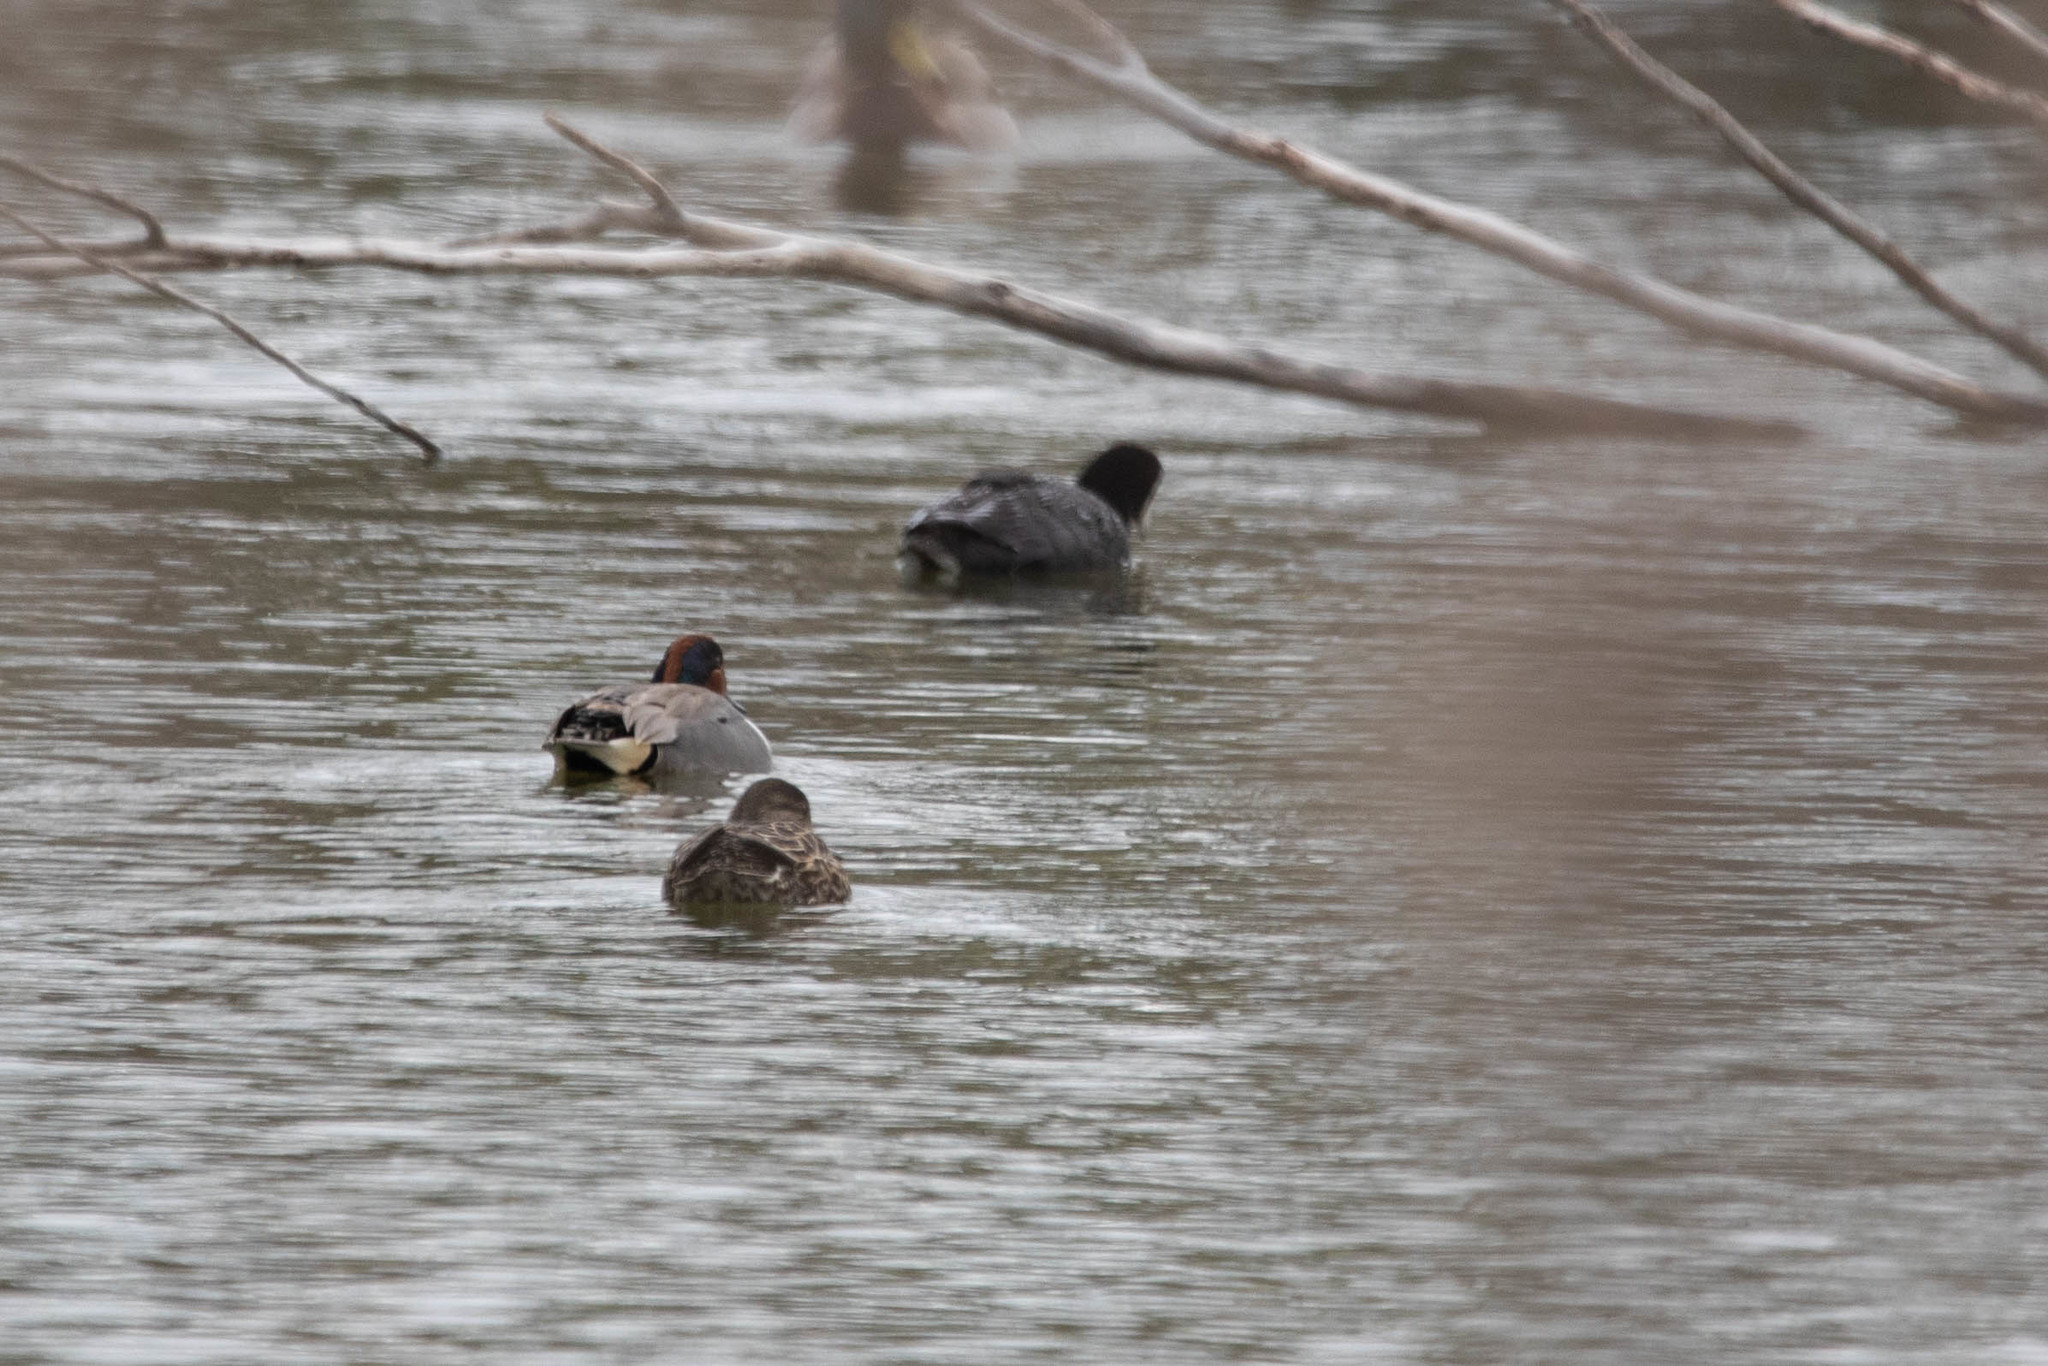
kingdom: Animalia
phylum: Chordata
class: Aves
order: Anseriformes
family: Anatidae
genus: Anas
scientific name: Anas carolinensis
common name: Green-winged teal
